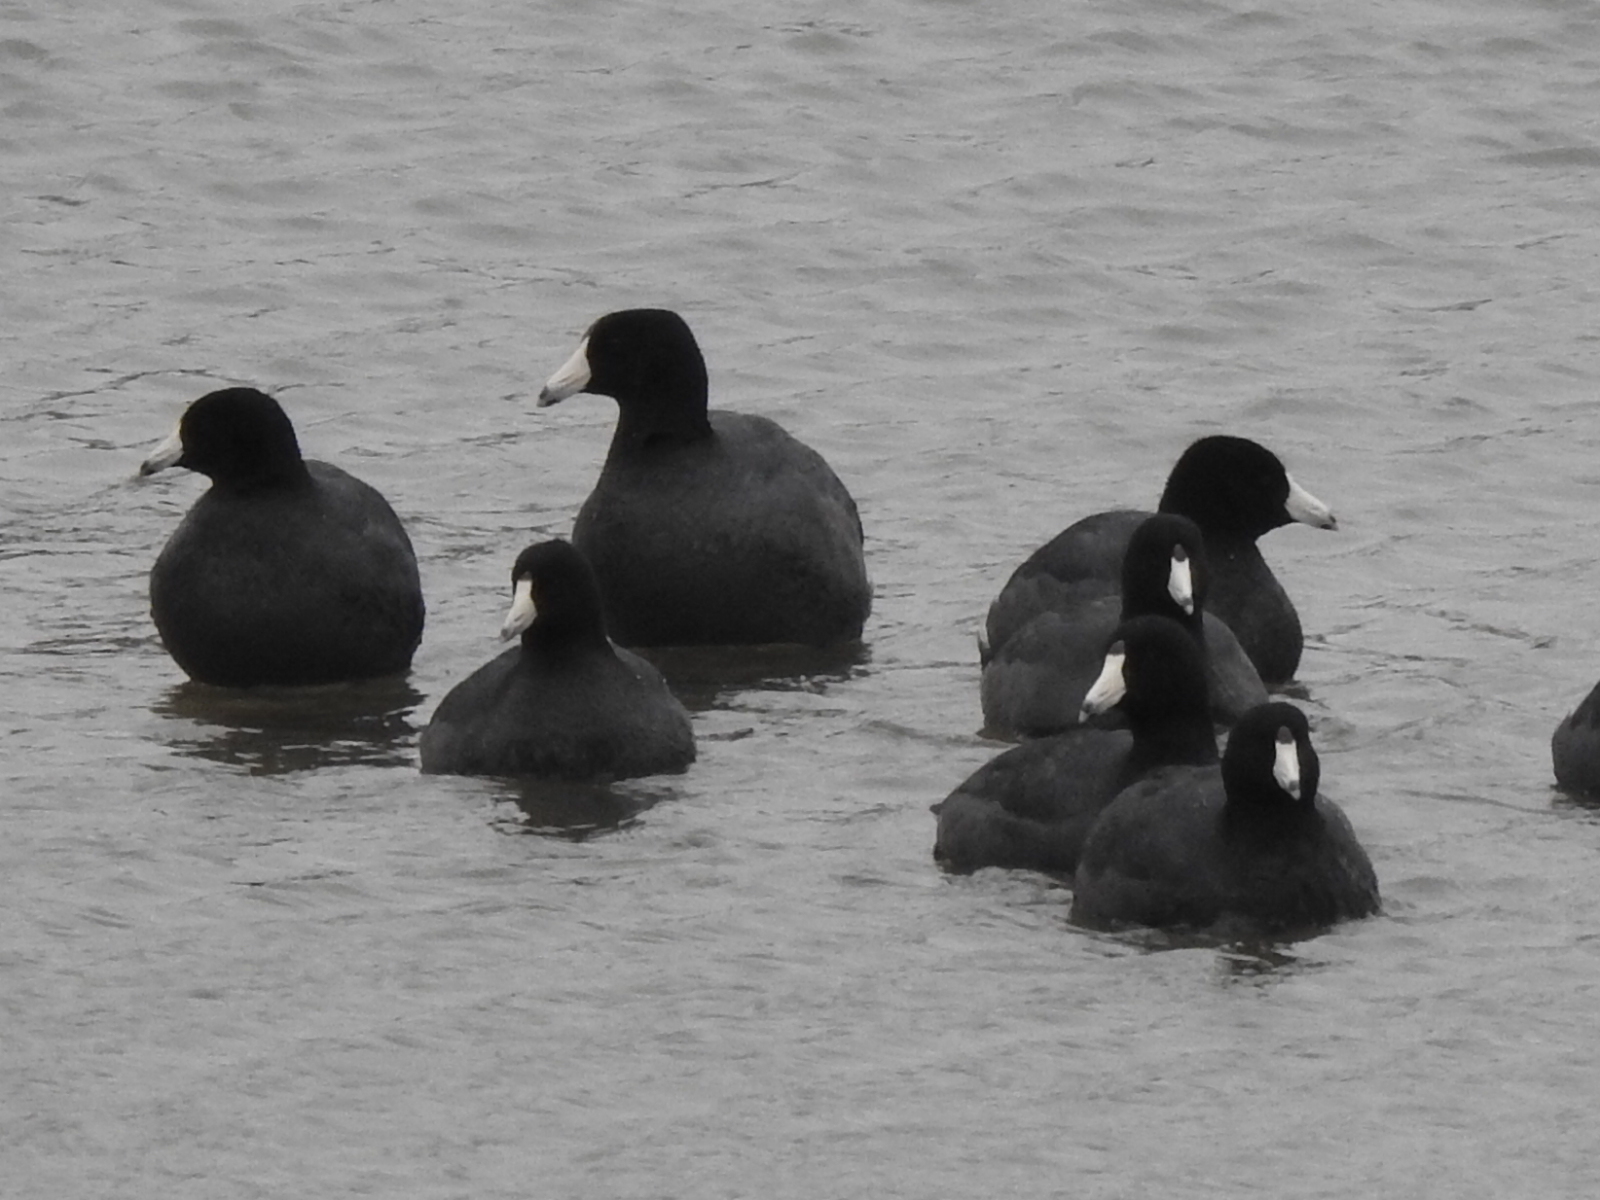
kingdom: Animalia
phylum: Chordata
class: Aves
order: Gruiformes
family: Rallidae
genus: Fulica
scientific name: Fulica americana
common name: American coot
